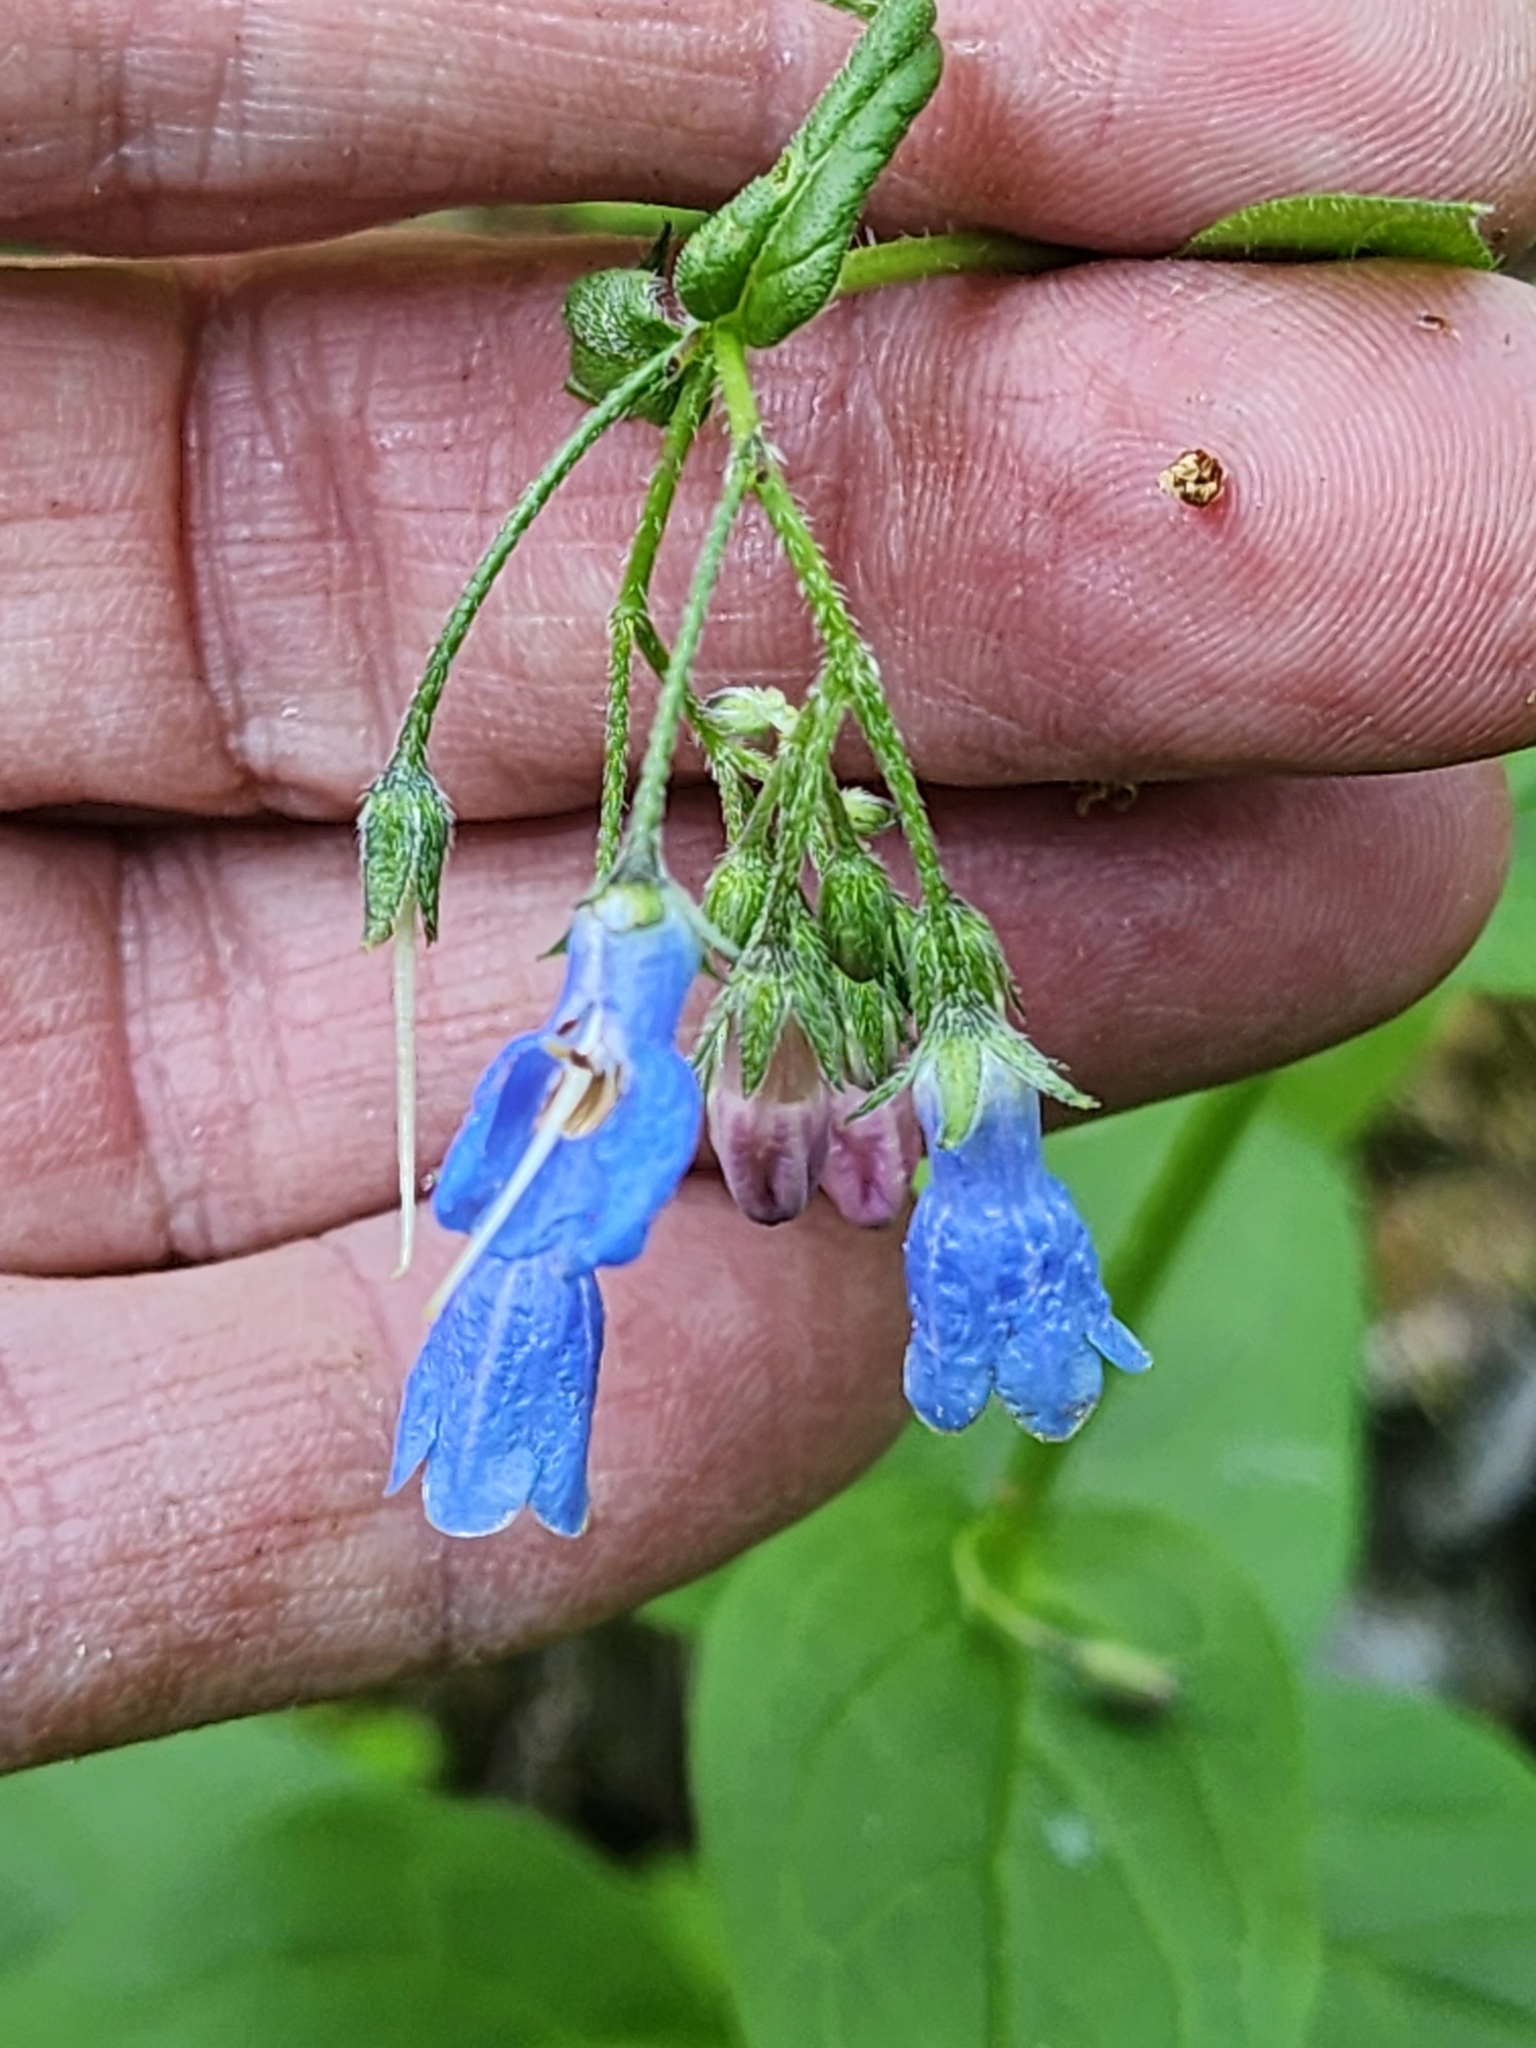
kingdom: Plantae
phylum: Tracheophyta
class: Magnoliopsida
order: Boraginales
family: Boraginaceae
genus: Mertensia
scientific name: Mertensia paniculata
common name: Panicled bluebells
